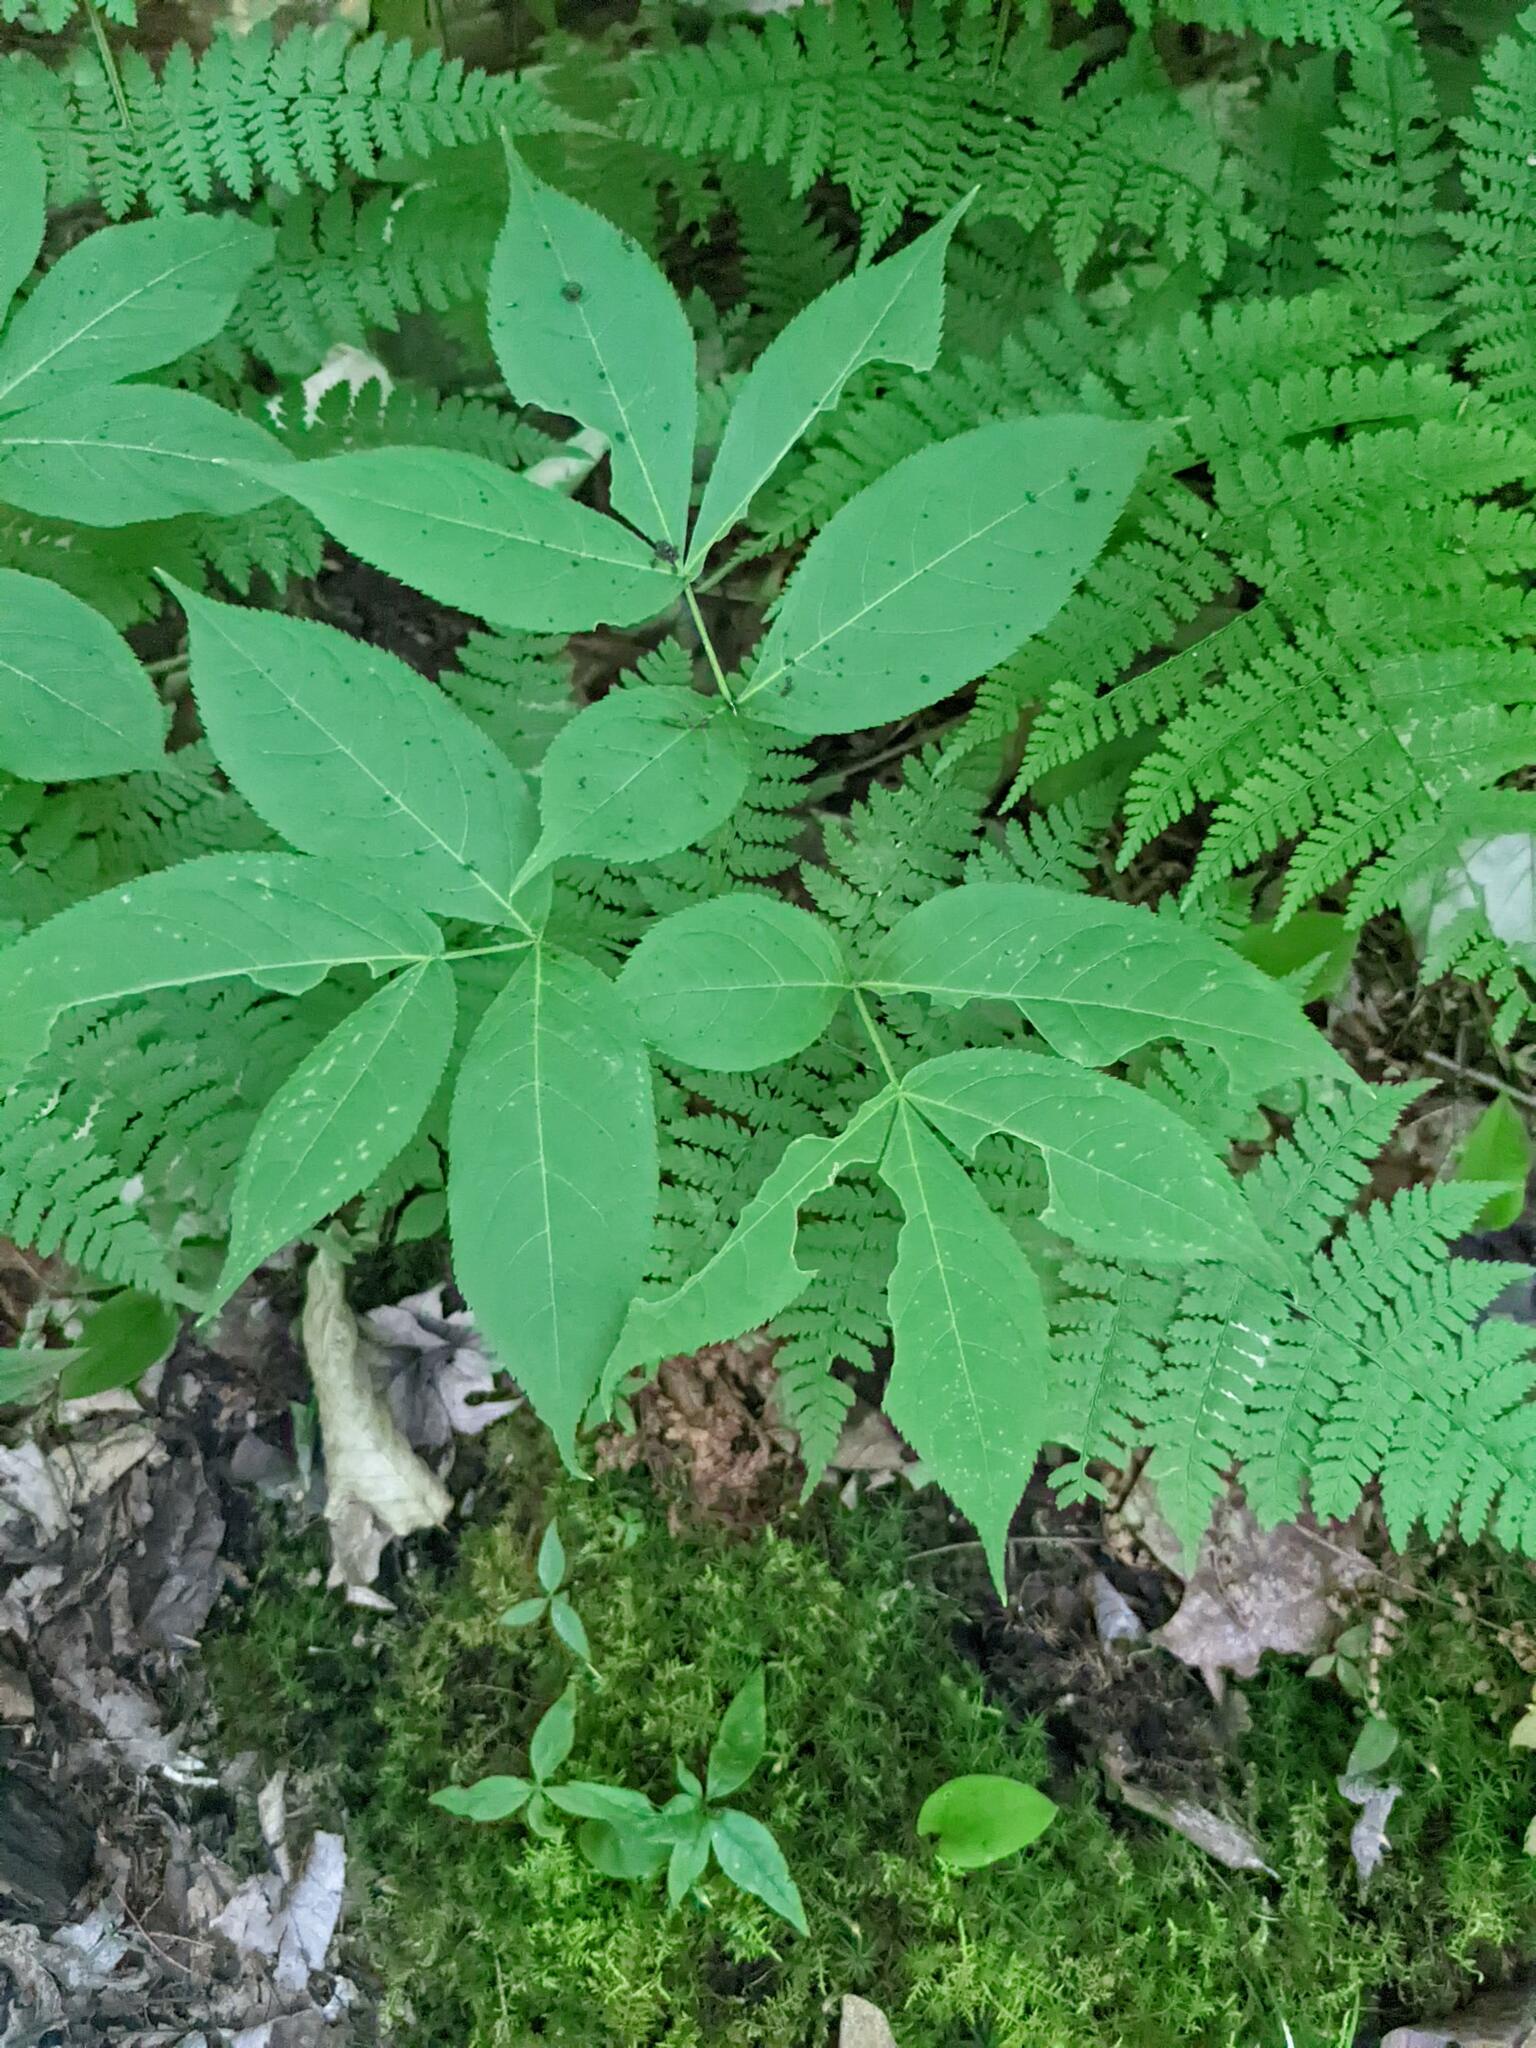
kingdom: Plantae
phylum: Tracheophyta
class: Magnoliopsida
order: Apiales
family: Araliaceae
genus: Aralia
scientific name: Aralia nudicaulis
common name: Wild sarsaparilla
